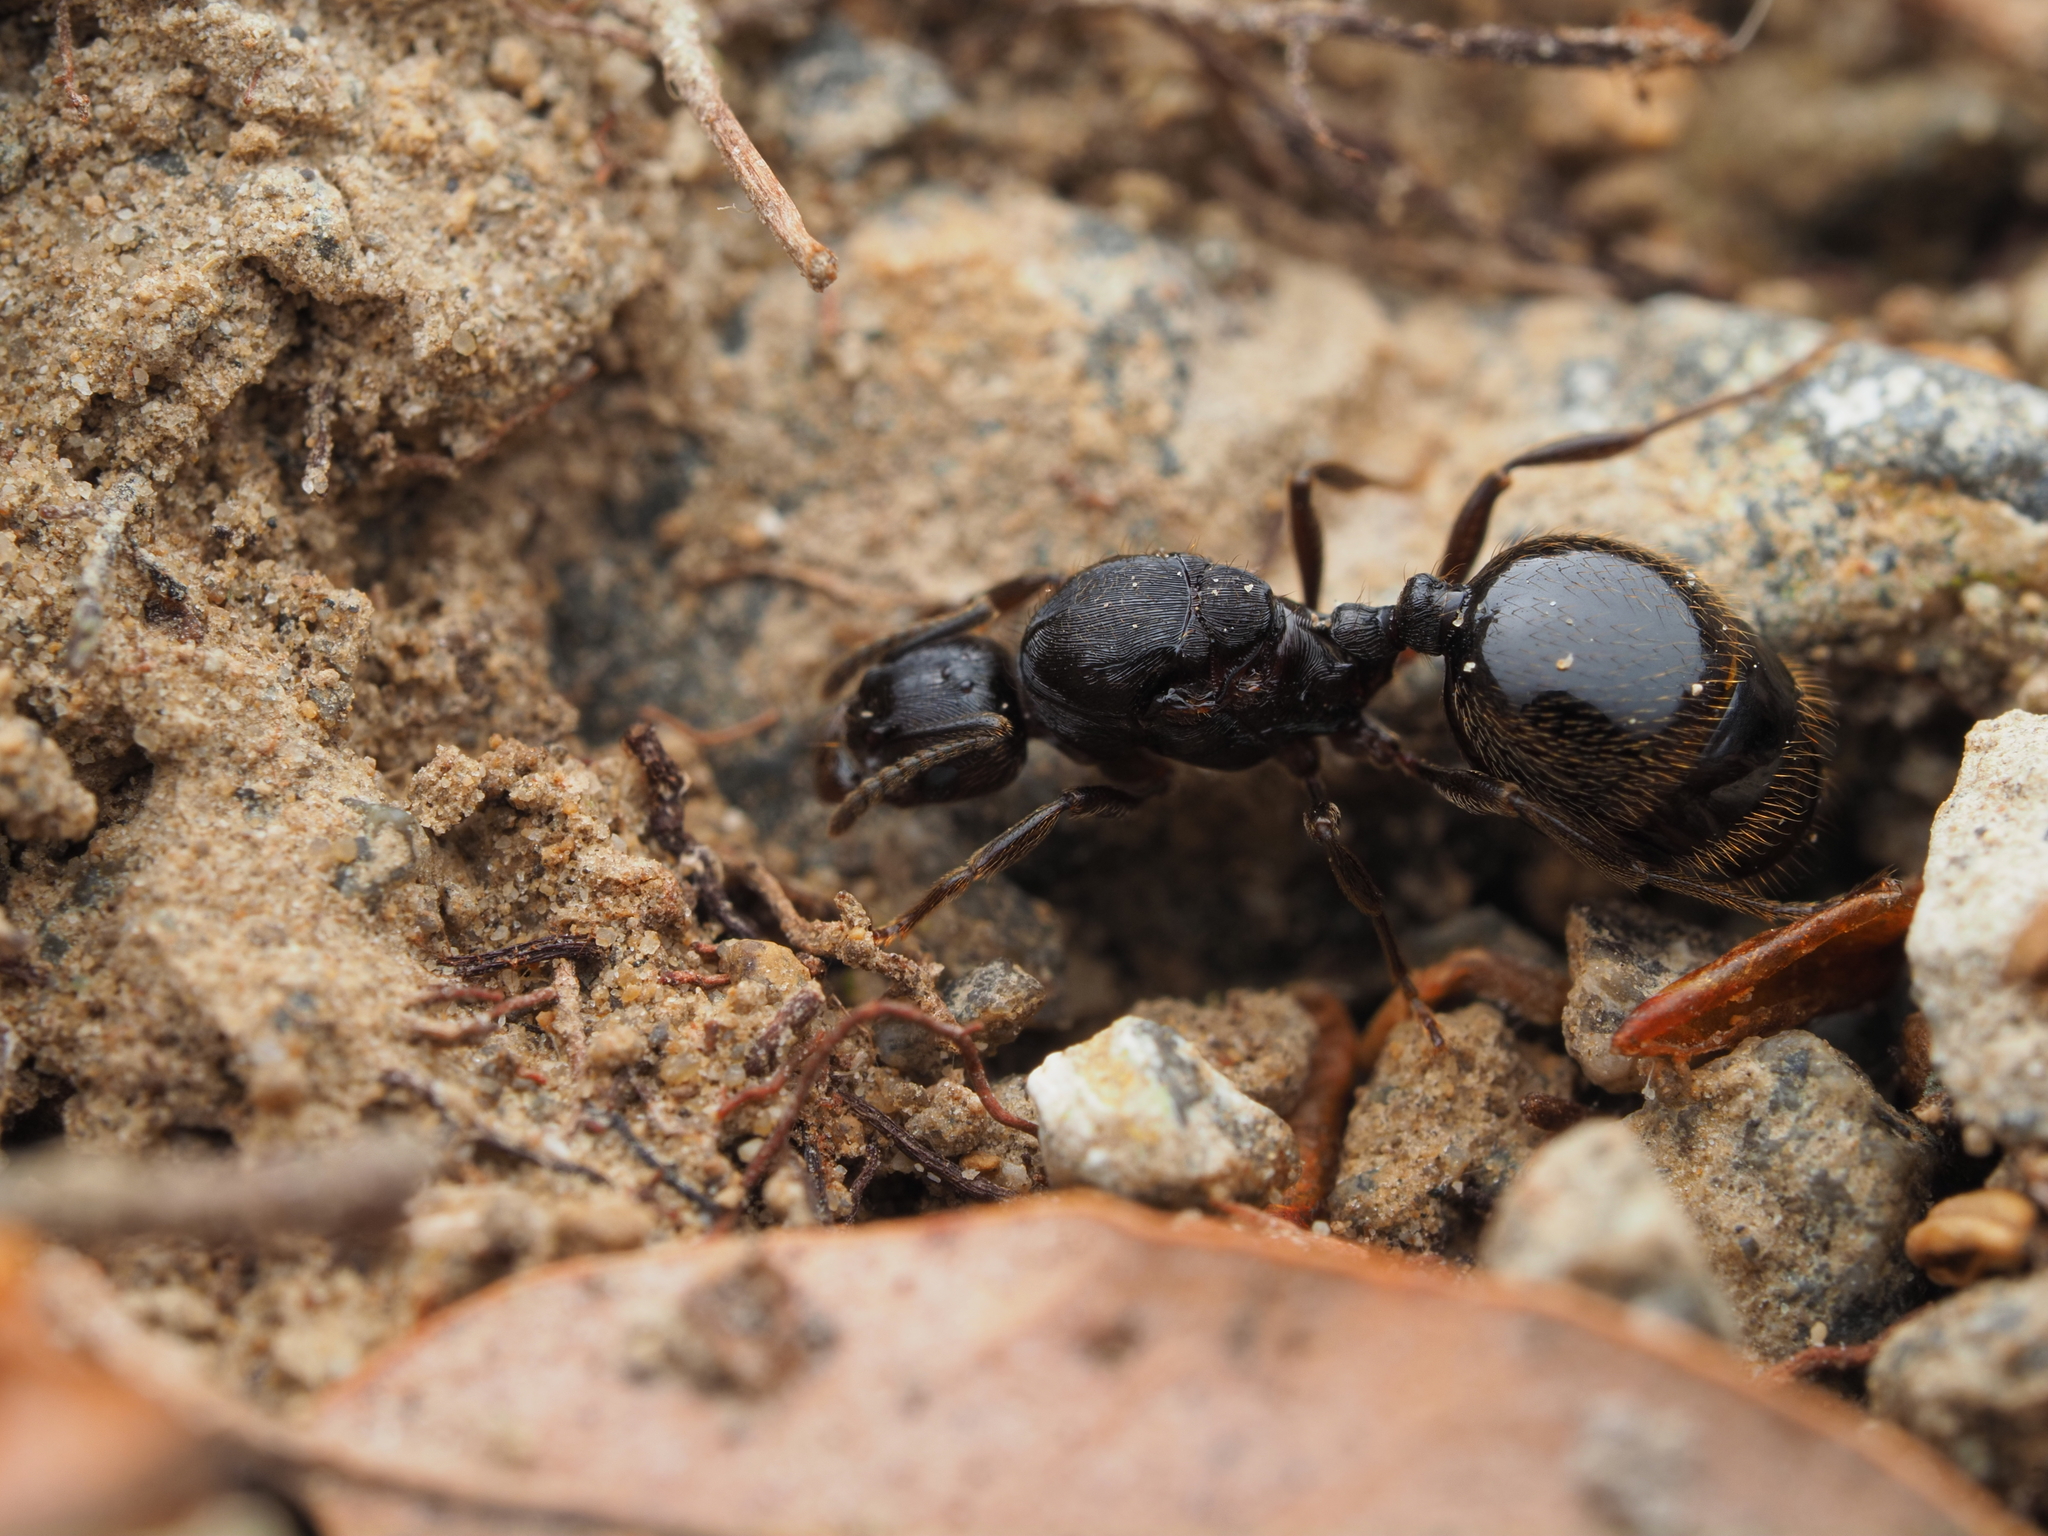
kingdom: Animalia
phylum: Arthropoda
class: Insecta
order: Hymenoptera
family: Formicidae
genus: Huberia
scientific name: Huberia striata
